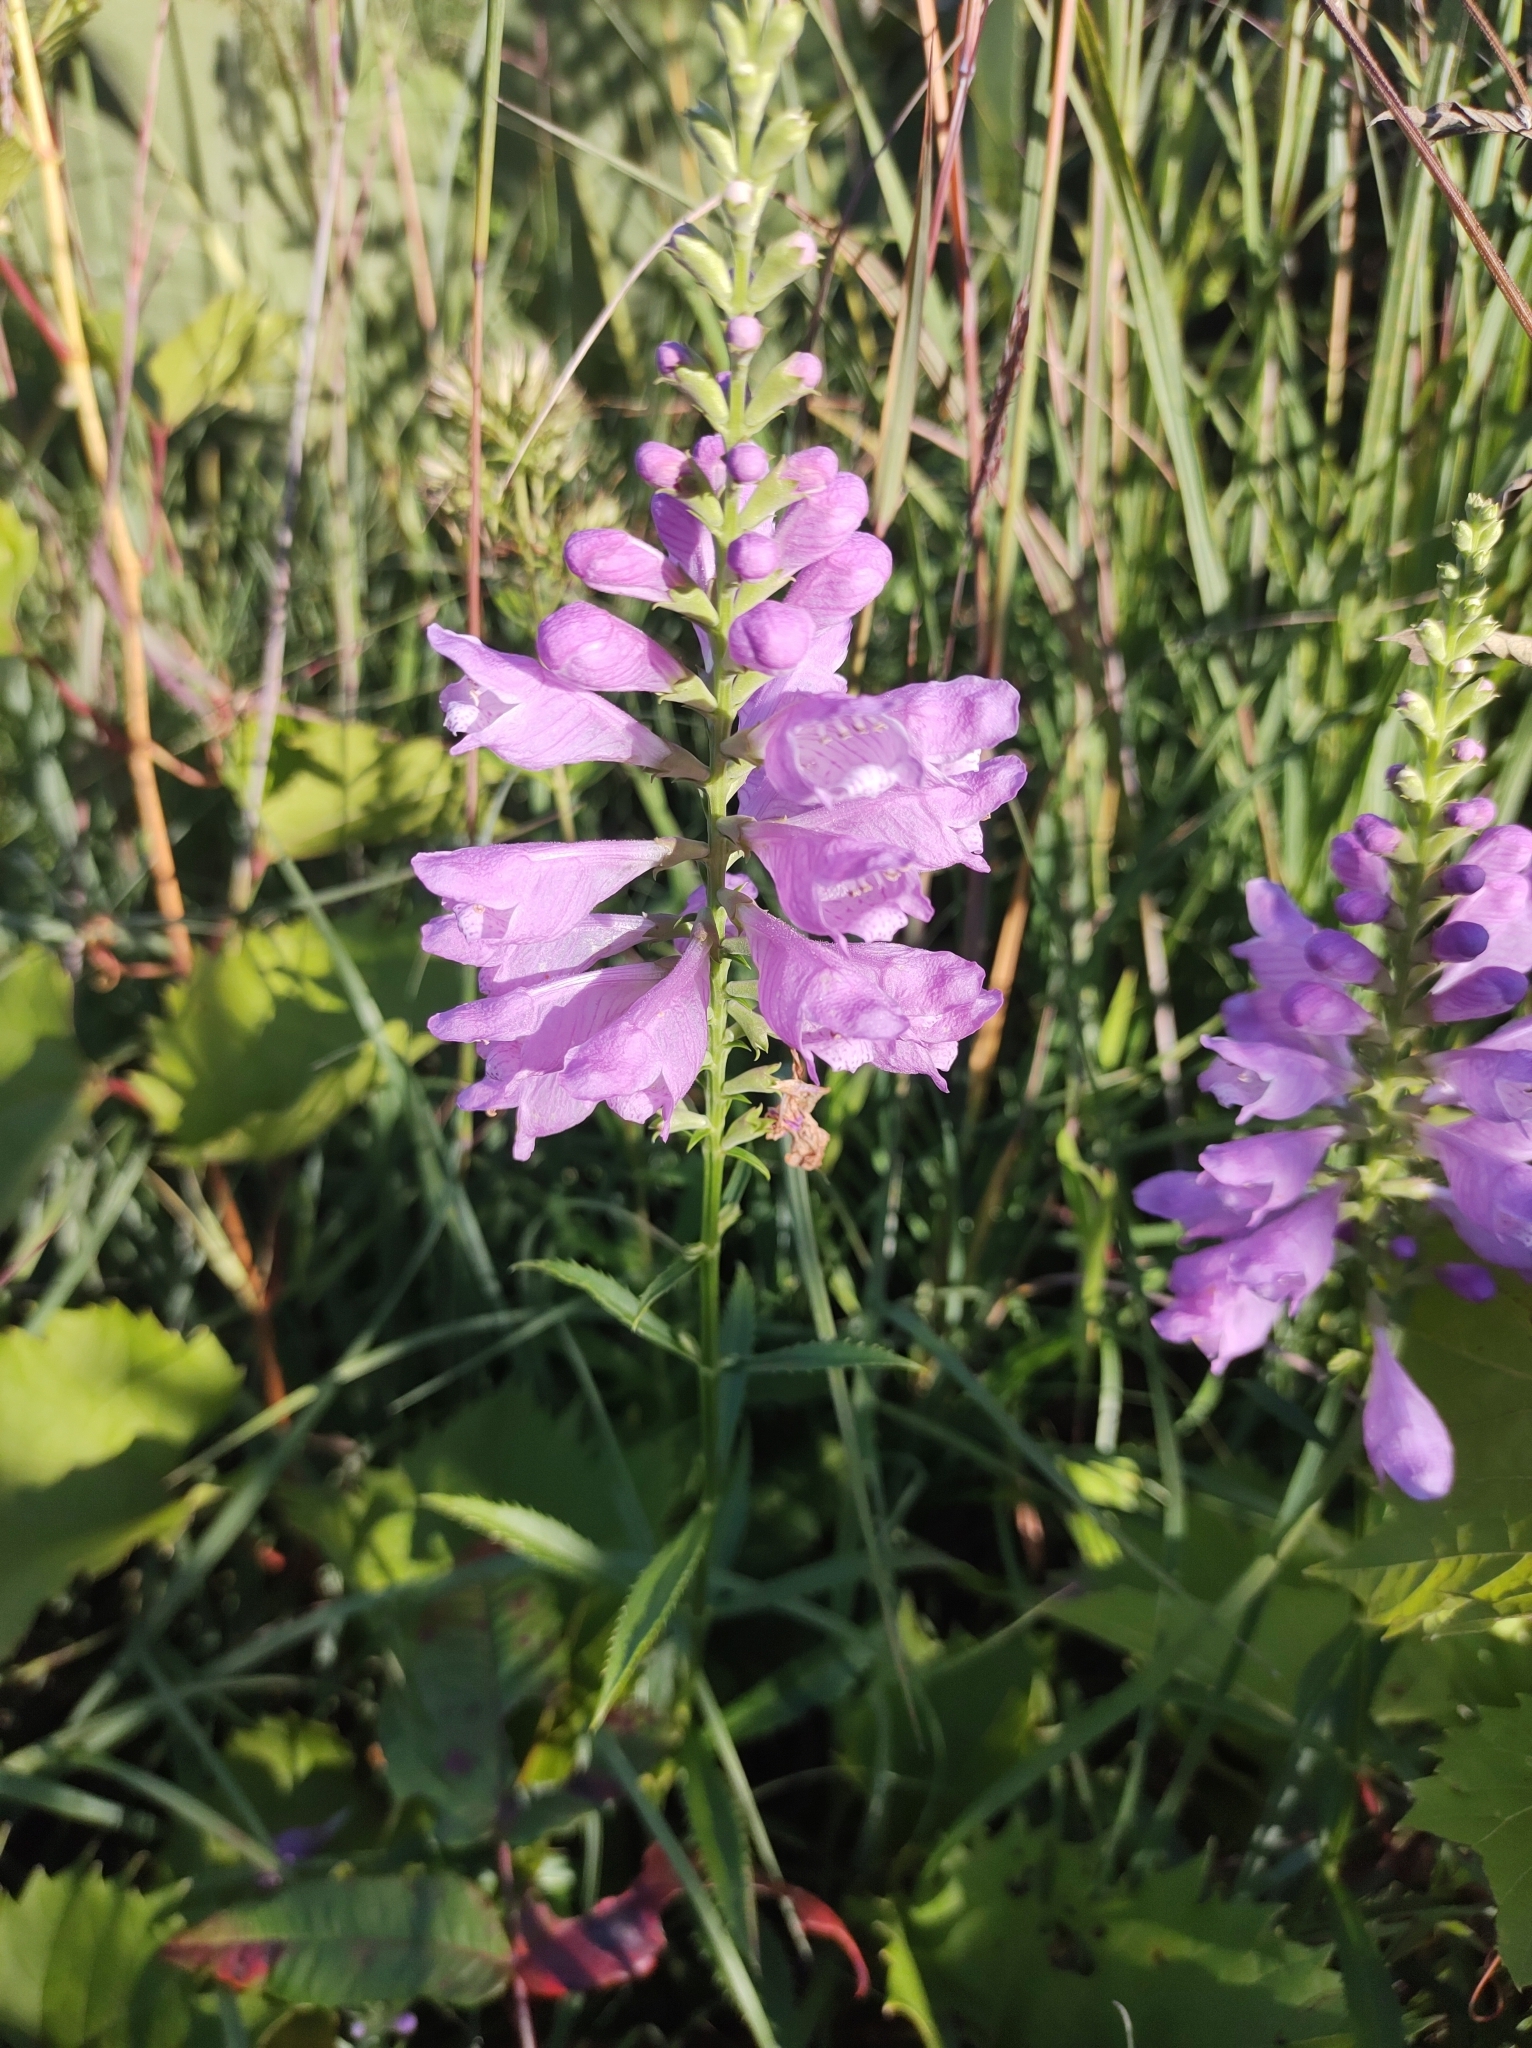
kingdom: Plantae
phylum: Tracheophyta
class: Magnoliopsida
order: Lamiales
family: Lamiaceae
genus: Physostegia
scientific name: Physostegia virginiana
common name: Obedient-plant
